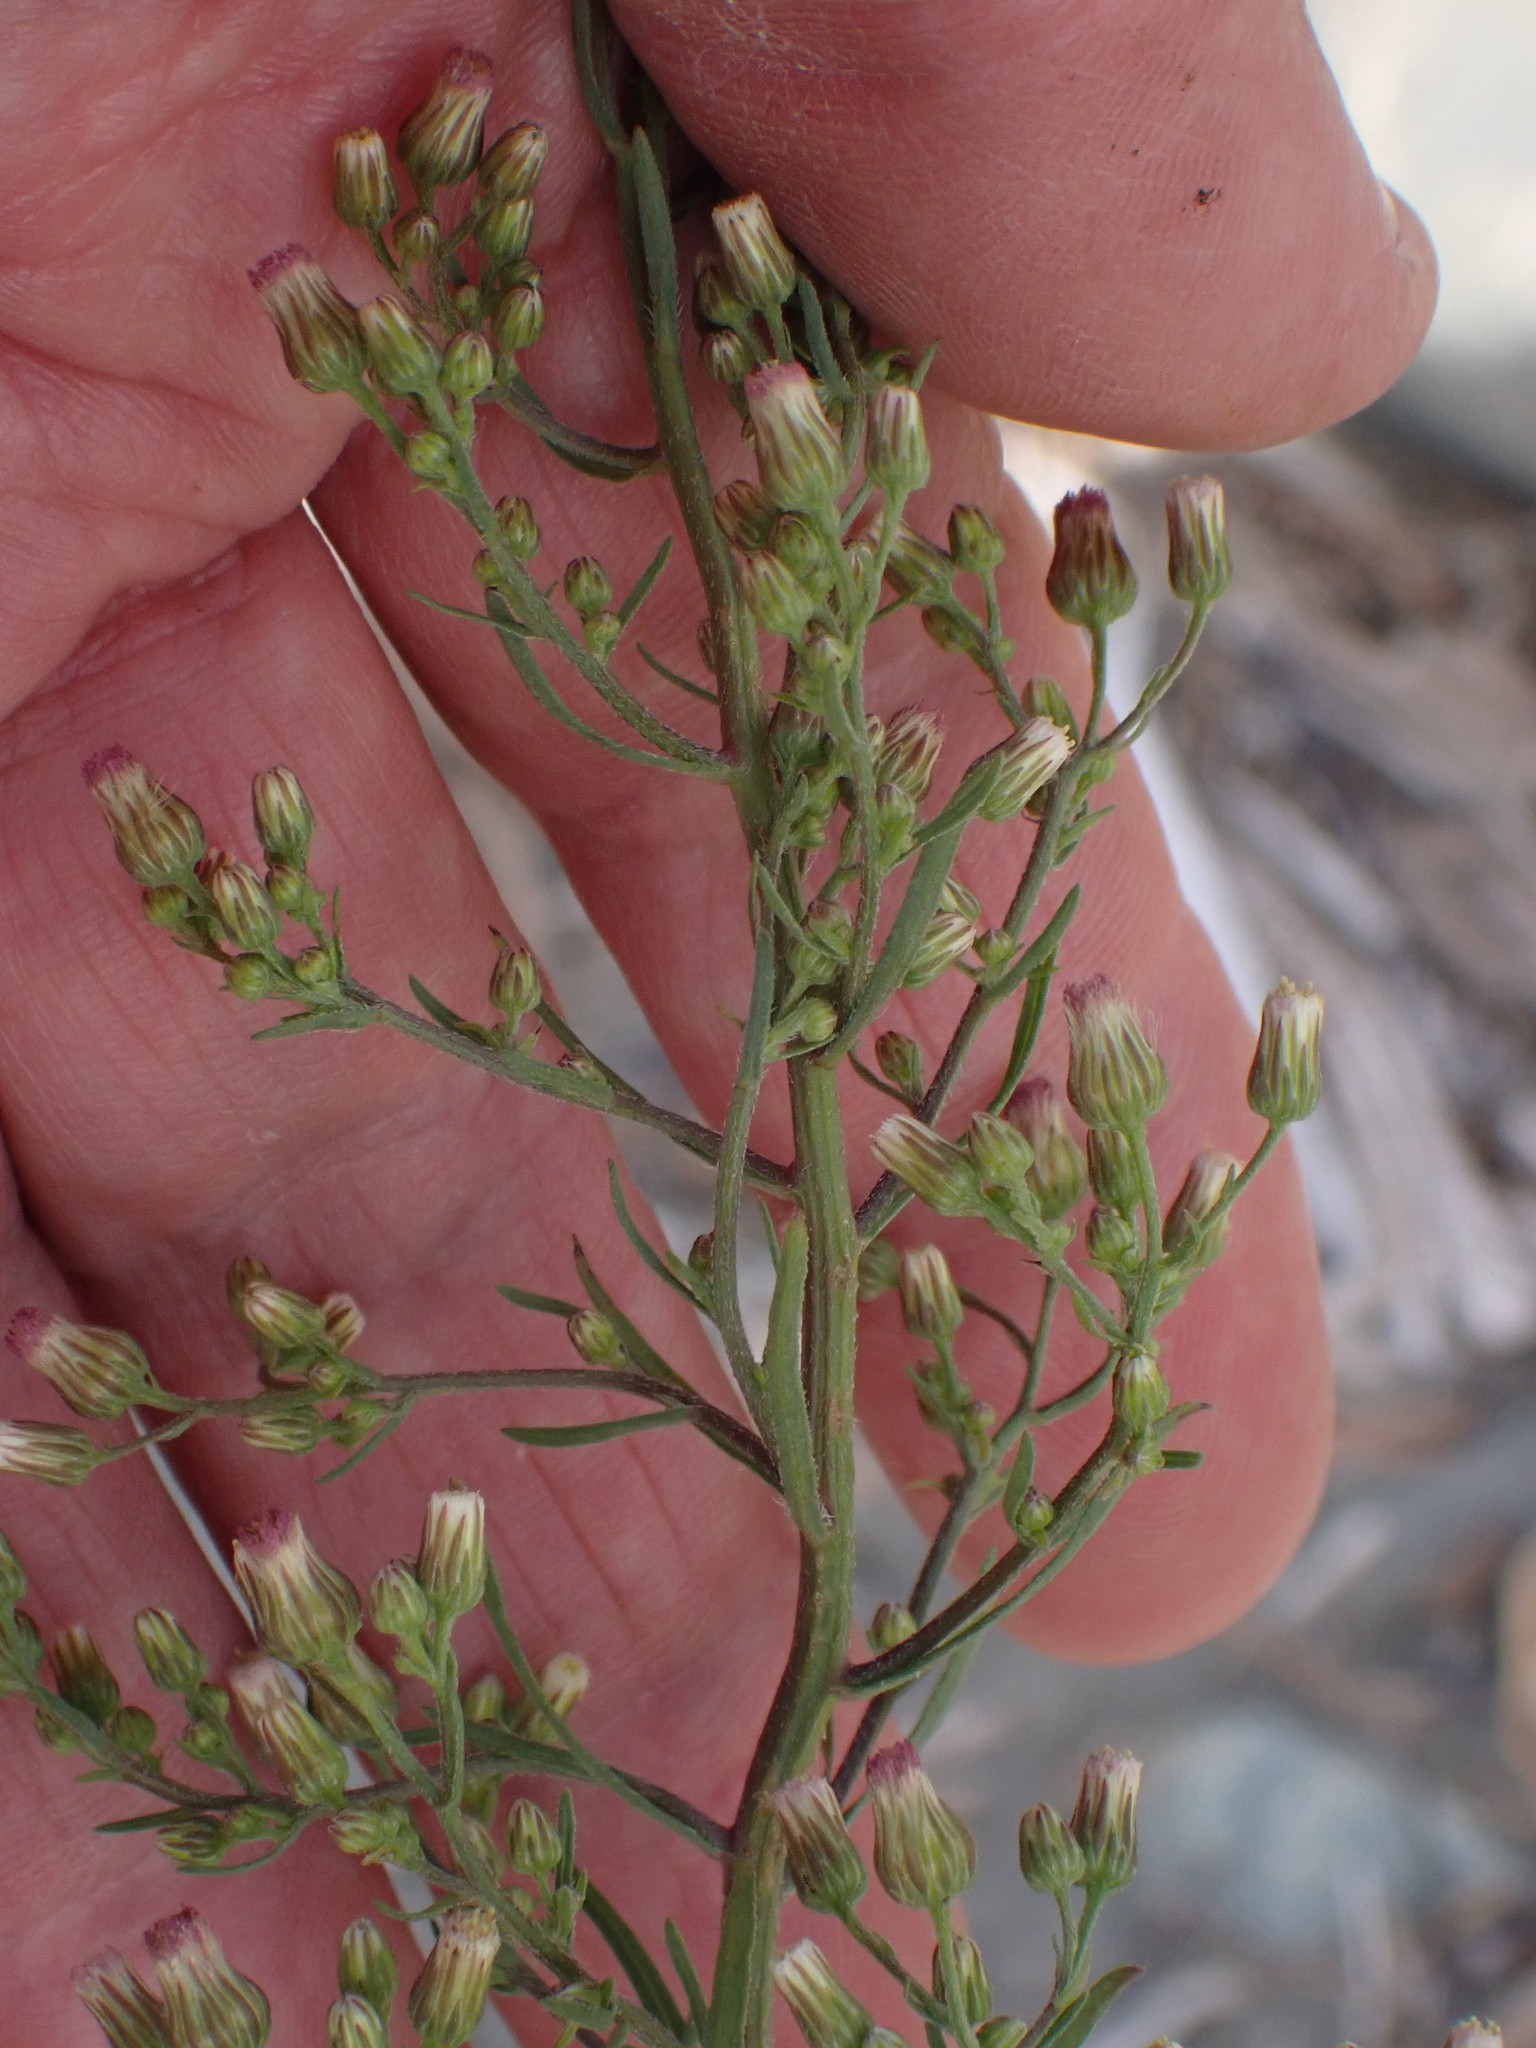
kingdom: Plantae
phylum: Tracheophyta
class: Magnoliopsida
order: Asterales
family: Asteraceae
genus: Erigeron
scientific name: Erigeron floribundus
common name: Bilbao fleabane
